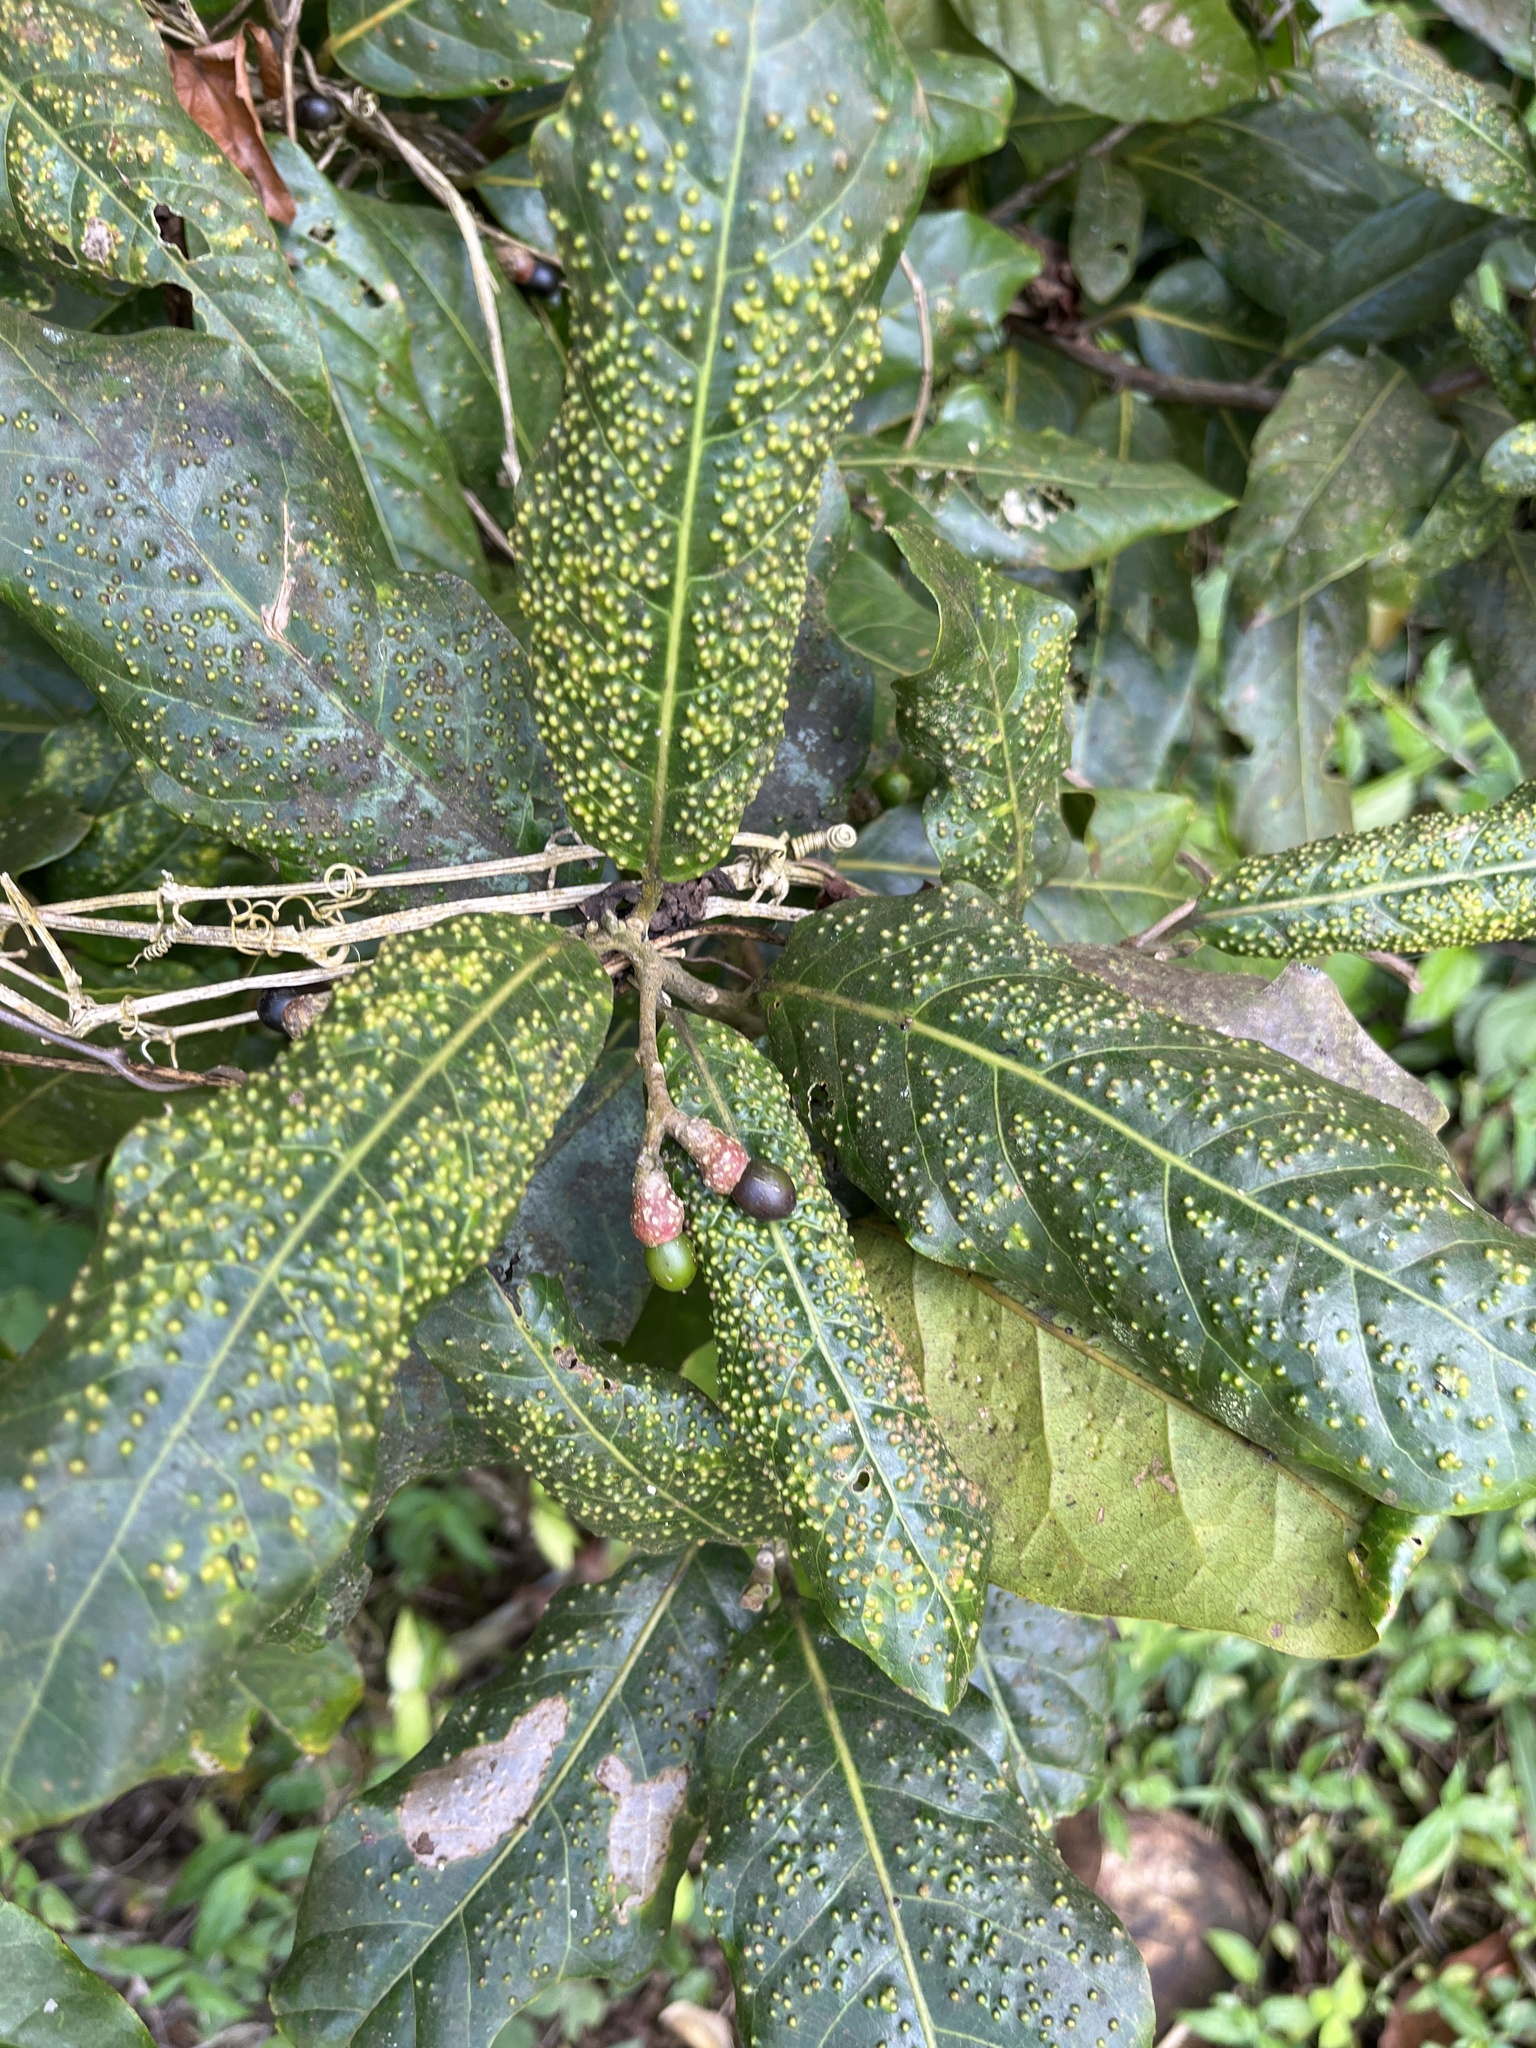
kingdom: Plantae
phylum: Tracheophyta
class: Magnoliopsida
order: Laurales
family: Lauraceae
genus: Ocotea
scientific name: Ocotea leucoxylon
